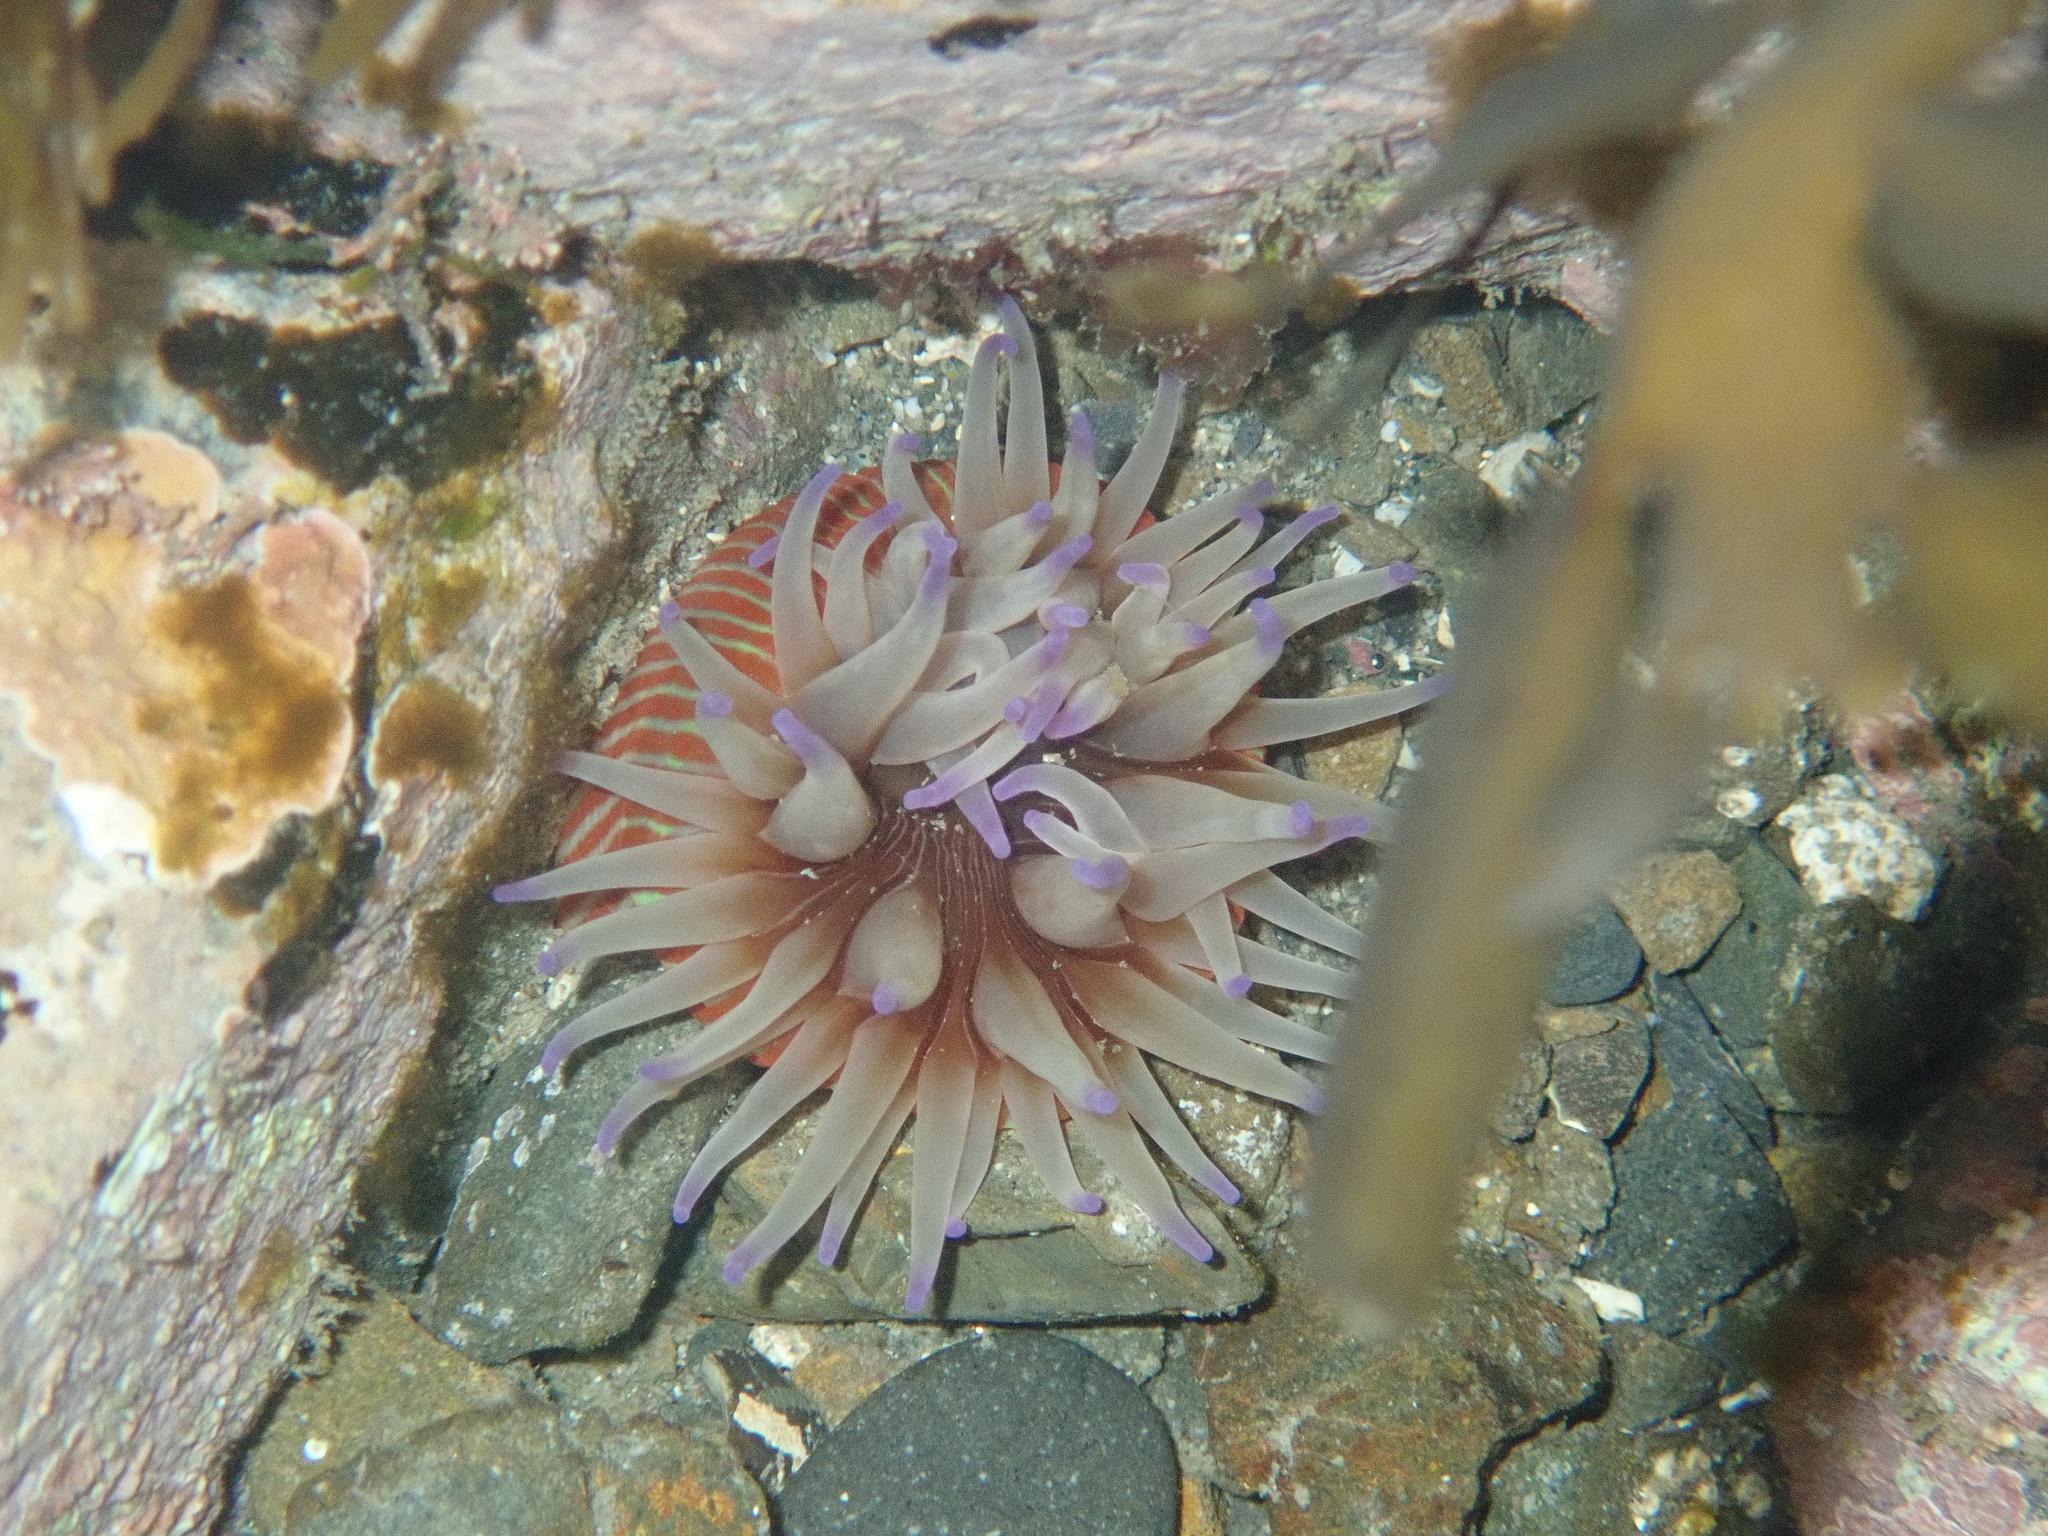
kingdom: Animalia
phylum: Cnidaria
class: Anthozoa
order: Actiniaria
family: Actiniidae
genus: Epiactis
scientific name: Epiactis thompsoni
